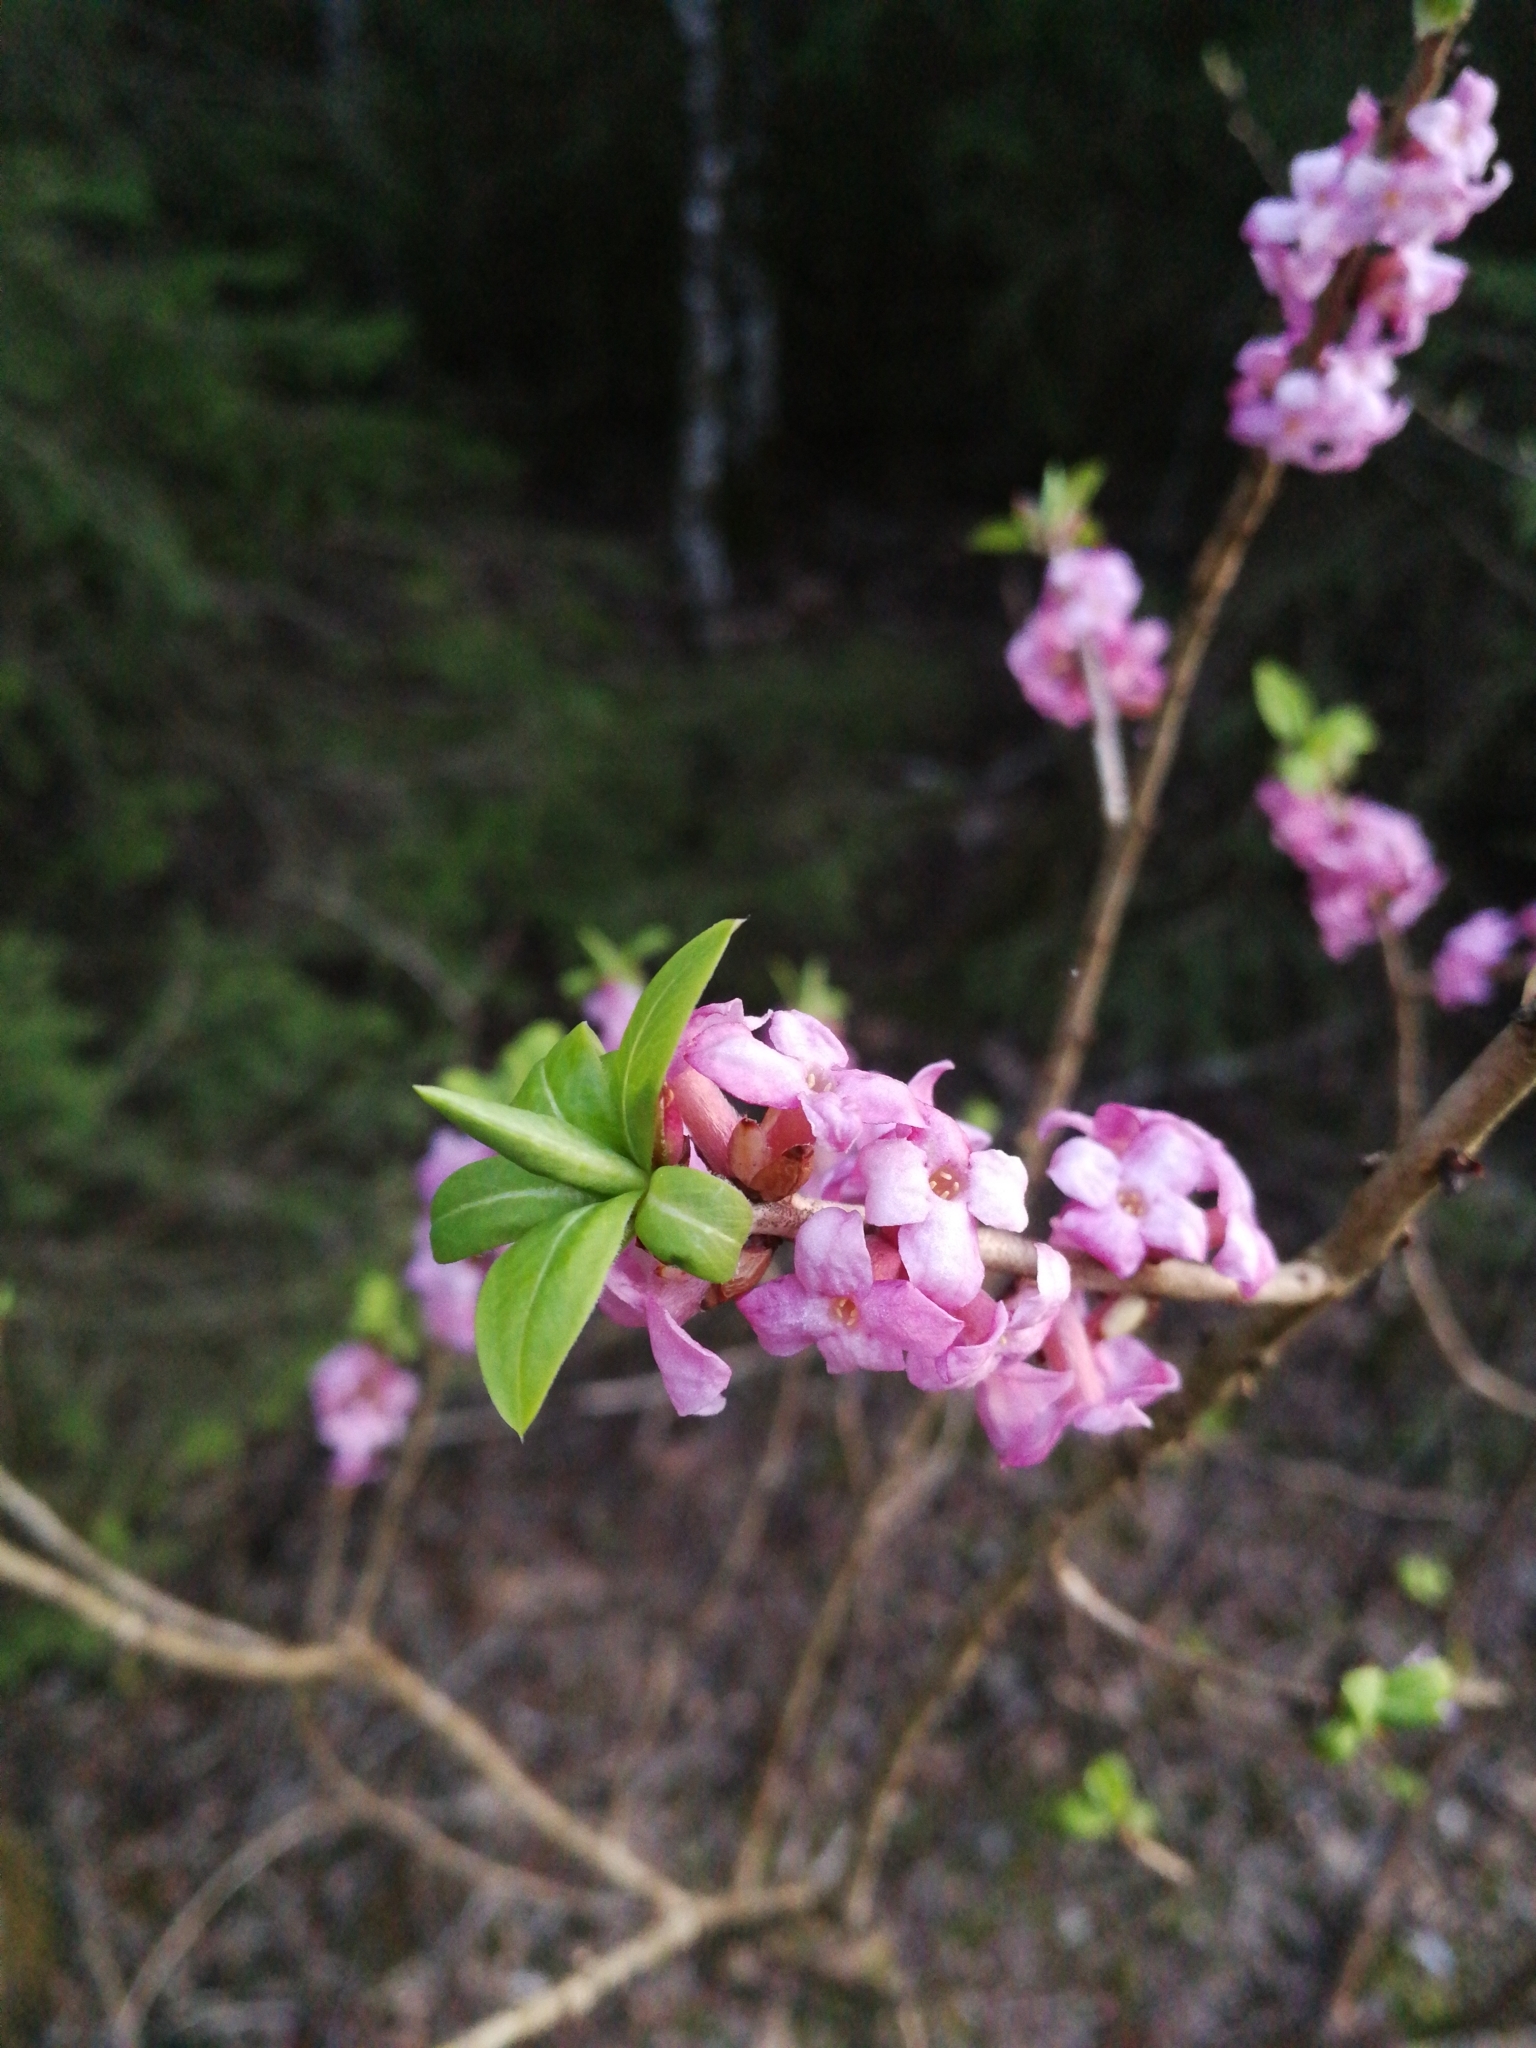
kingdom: Plantae
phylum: Tracheophyta
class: Magnoliopsida
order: Malvales
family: Thymelaeaceae
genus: Daphne
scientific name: Daphne mezereum
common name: Mezereon
